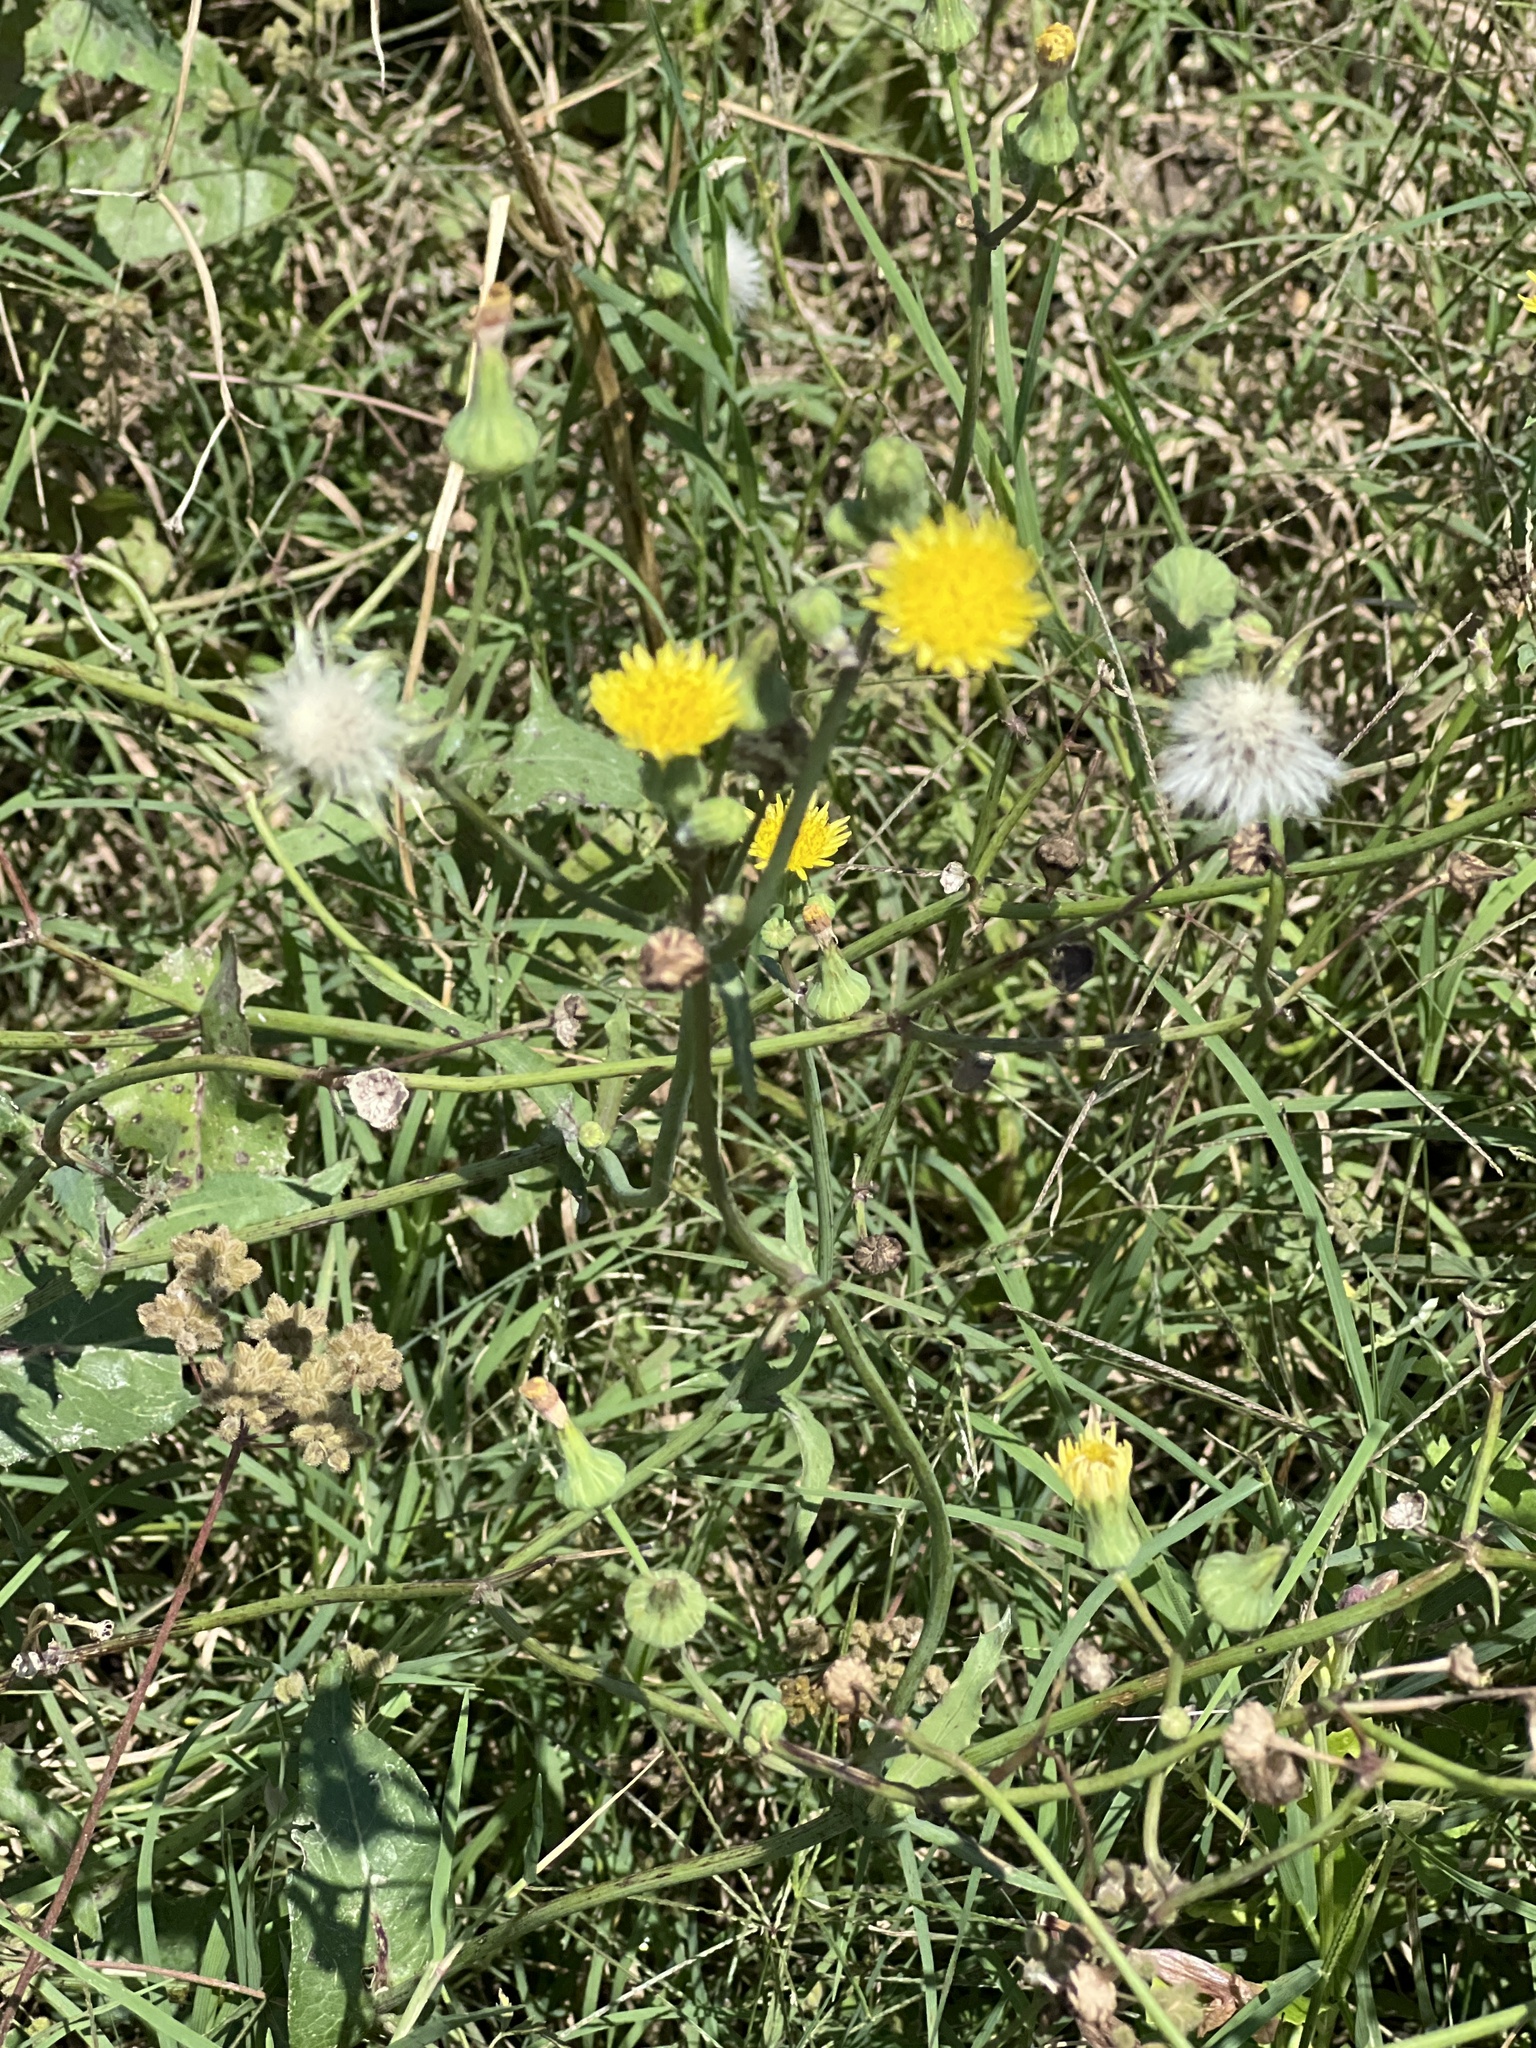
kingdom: Plantae
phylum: Tracheophyta
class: Magnoliopsida
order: Asterales
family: Asteraceae
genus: Sonchus
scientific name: Sonchus oleraceus
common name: Common sowthistle
